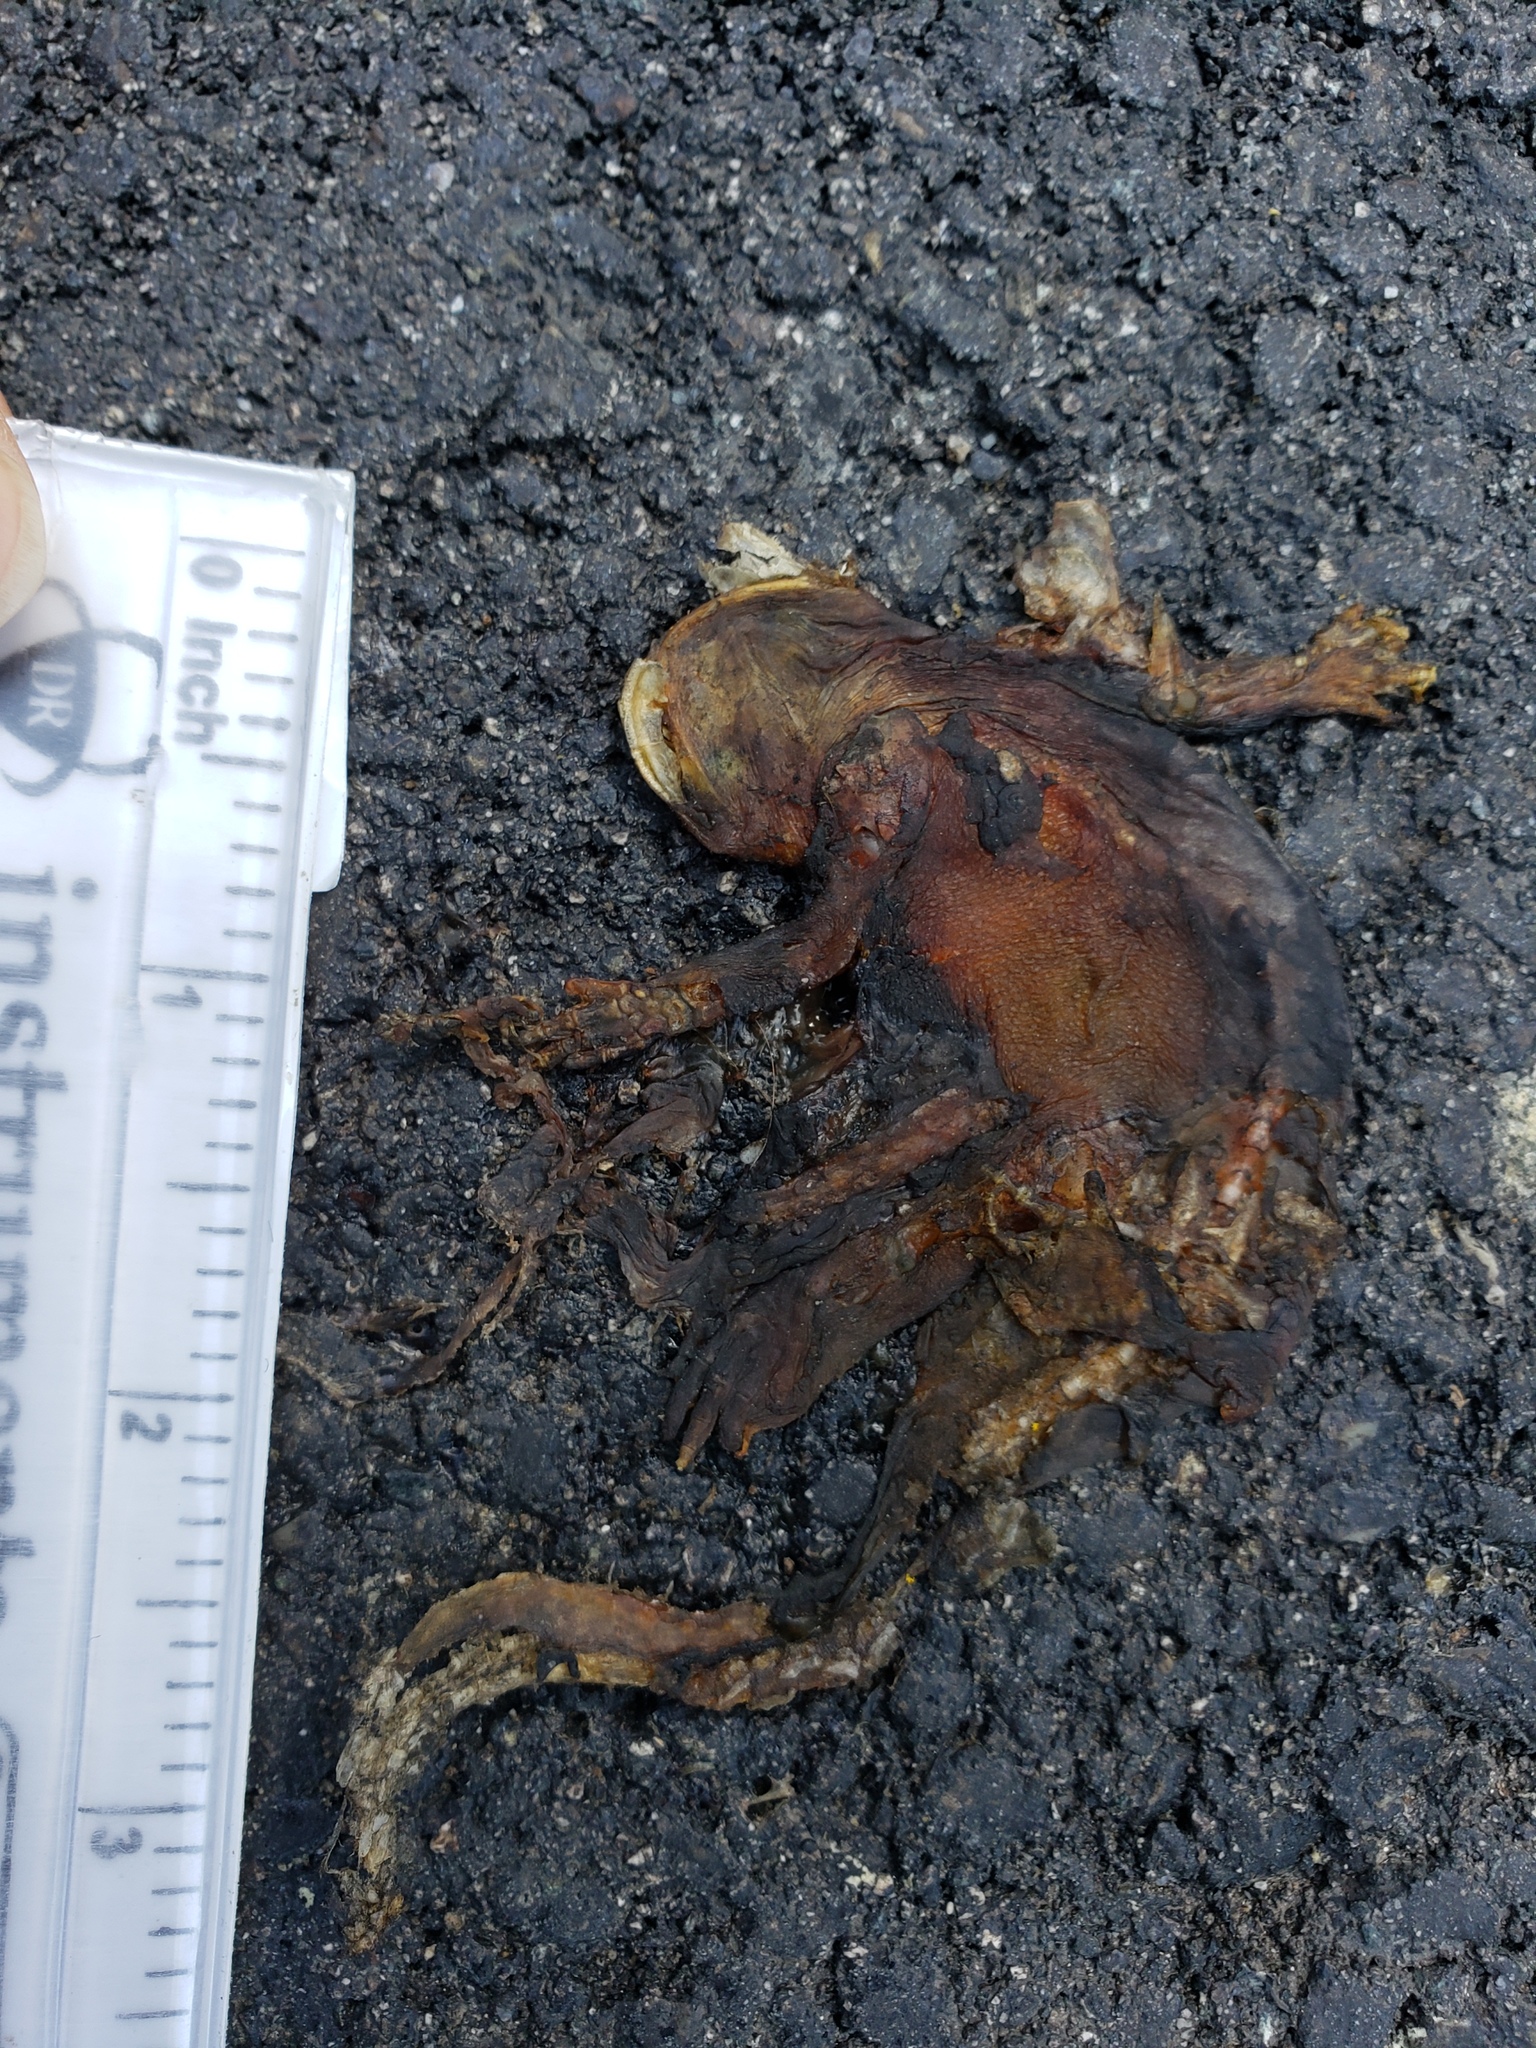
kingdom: Animalia
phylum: Chordata
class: Amphibia
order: Caudata
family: Salamandridae
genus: Taricha
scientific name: Taricha
